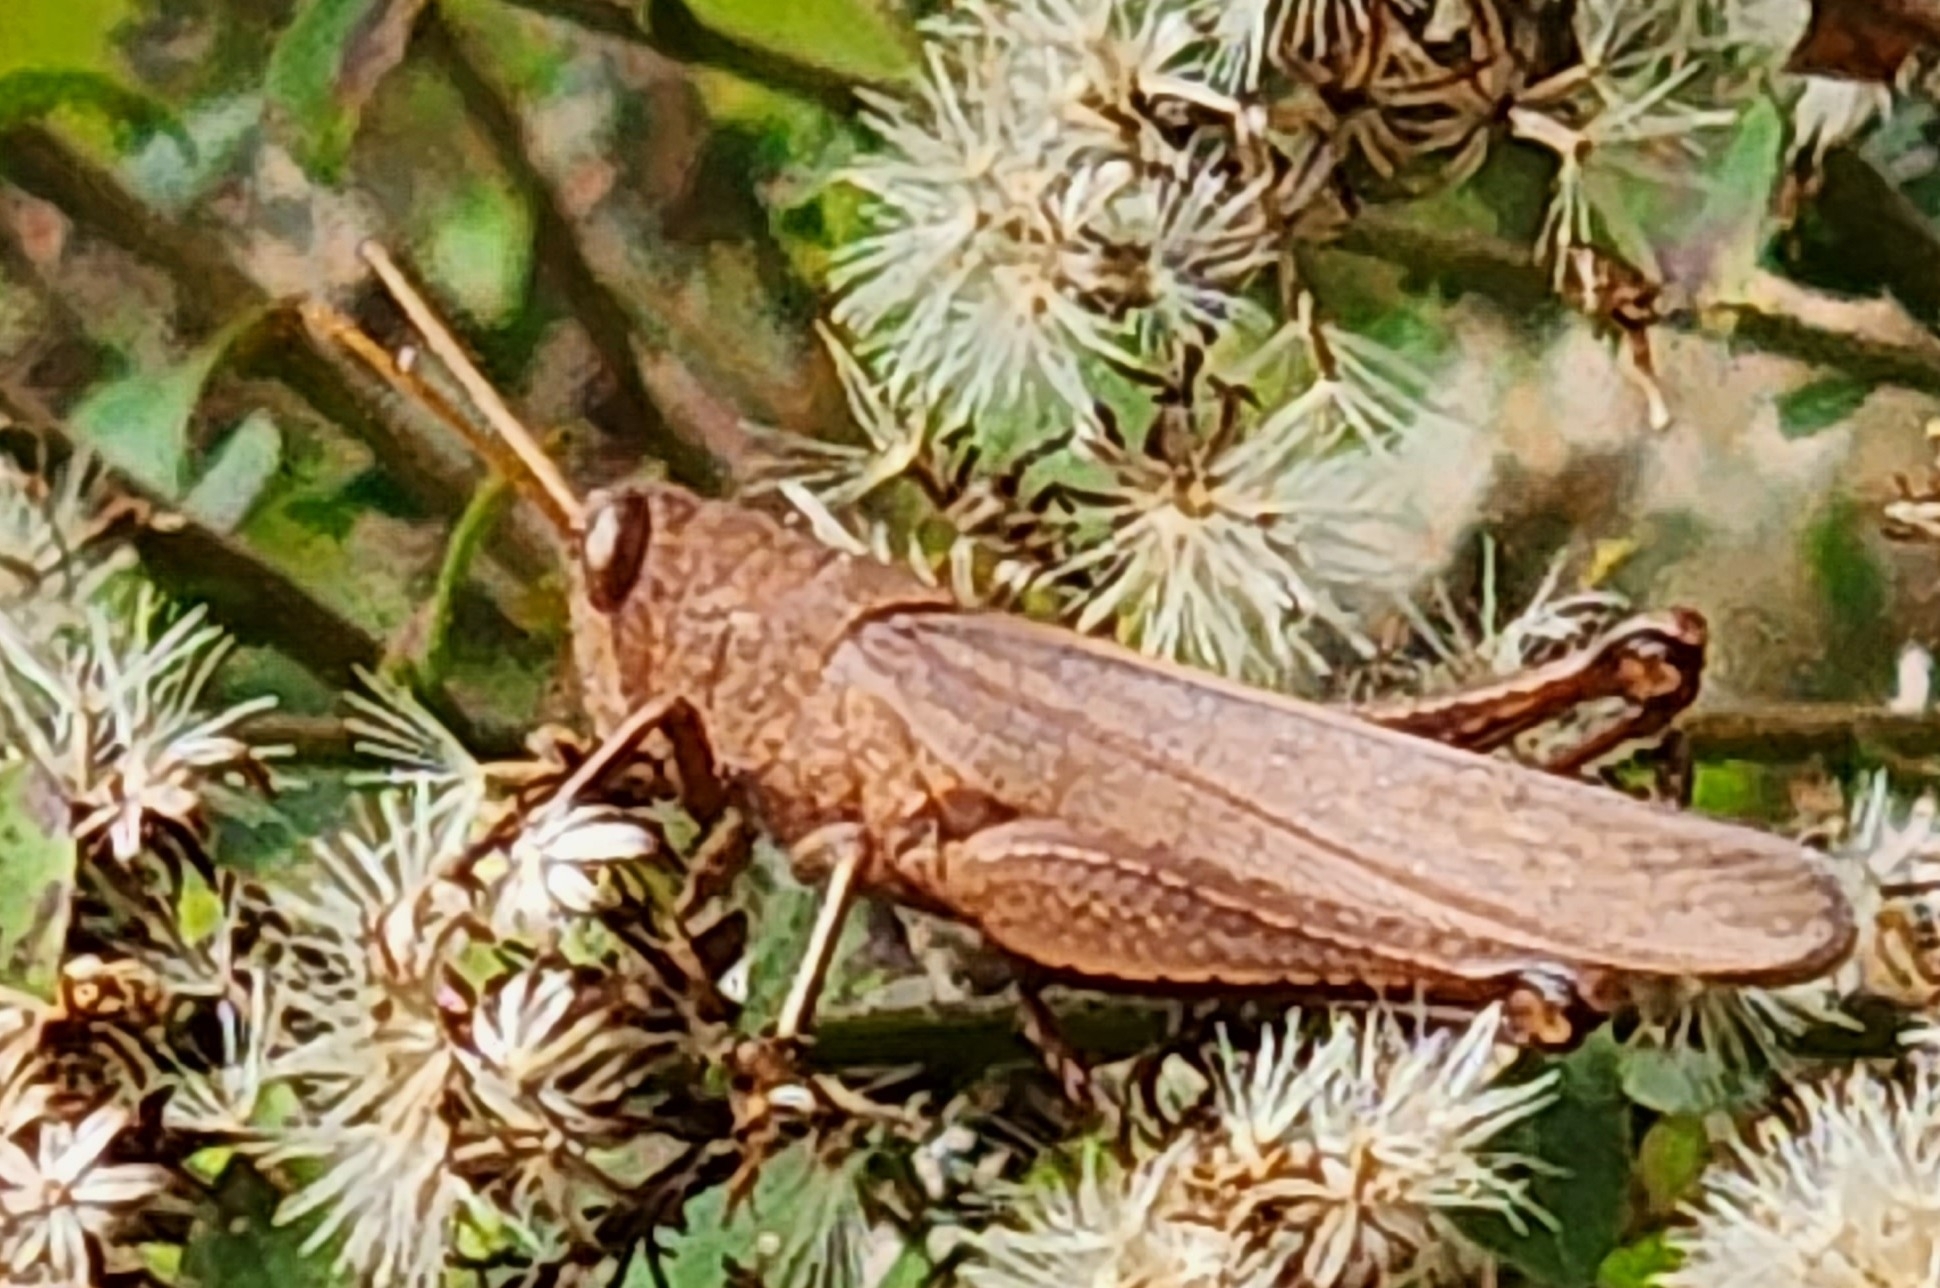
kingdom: Animalia
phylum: Arthropoda
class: Insecta
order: Orthoptera
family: Acrididae
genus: Schistocerca
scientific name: Schistocerca damnifica
